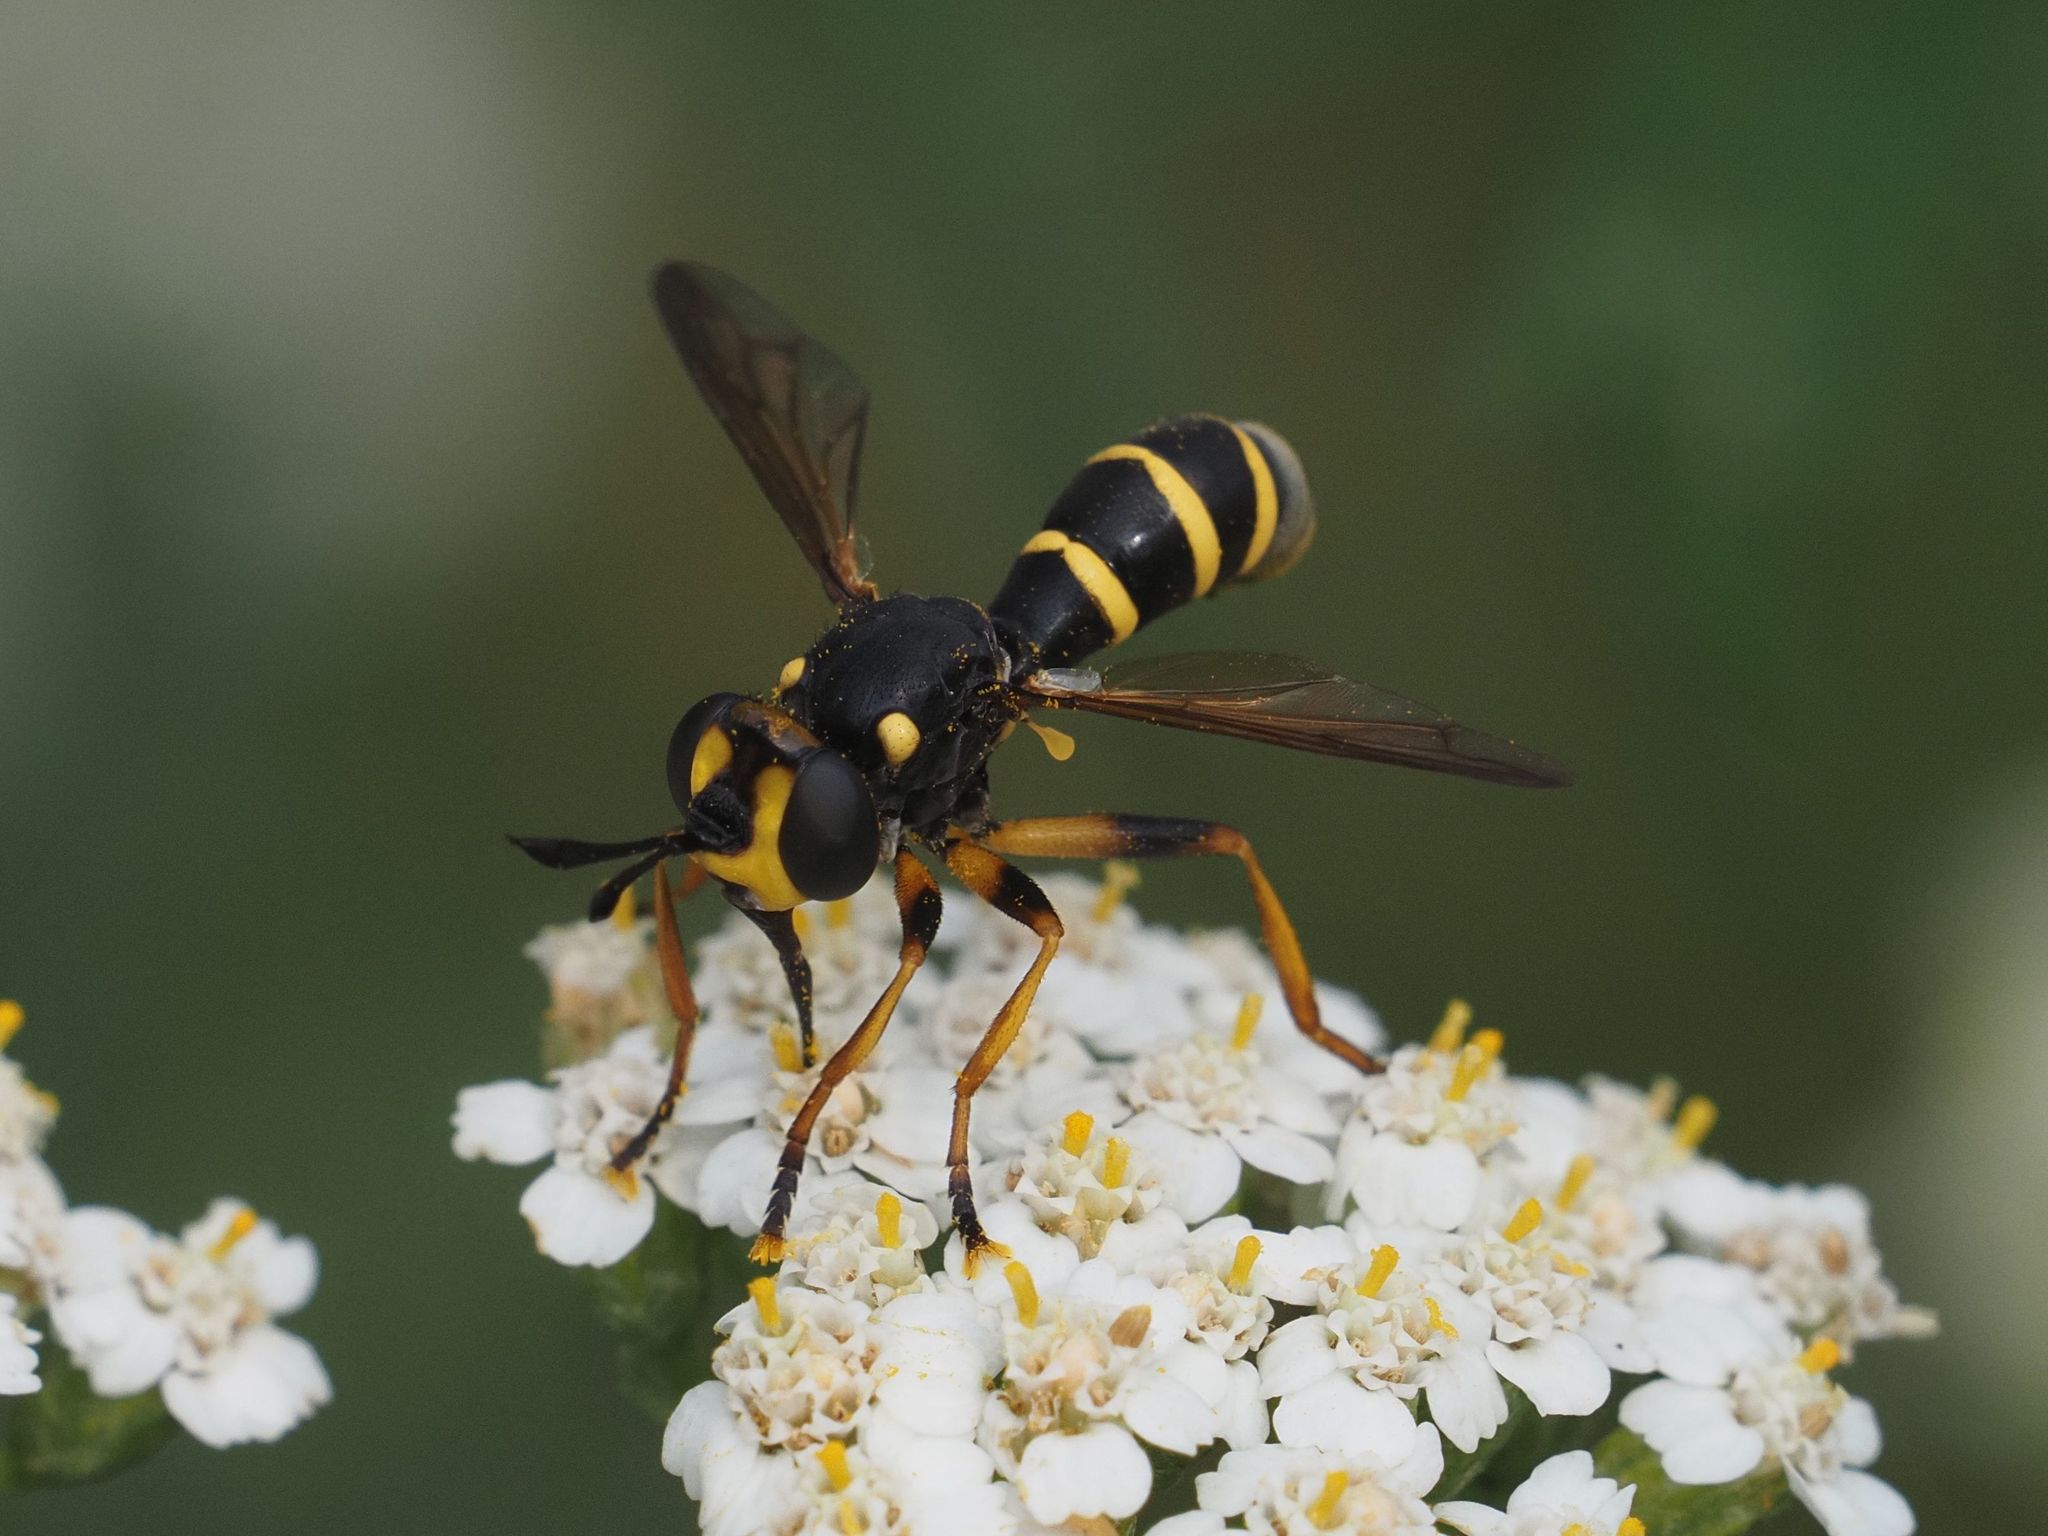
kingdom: Animalia
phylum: Arthropoda
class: Insecta
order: Diptera
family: Conopidae
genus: Conops
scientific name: Conops flavipes
